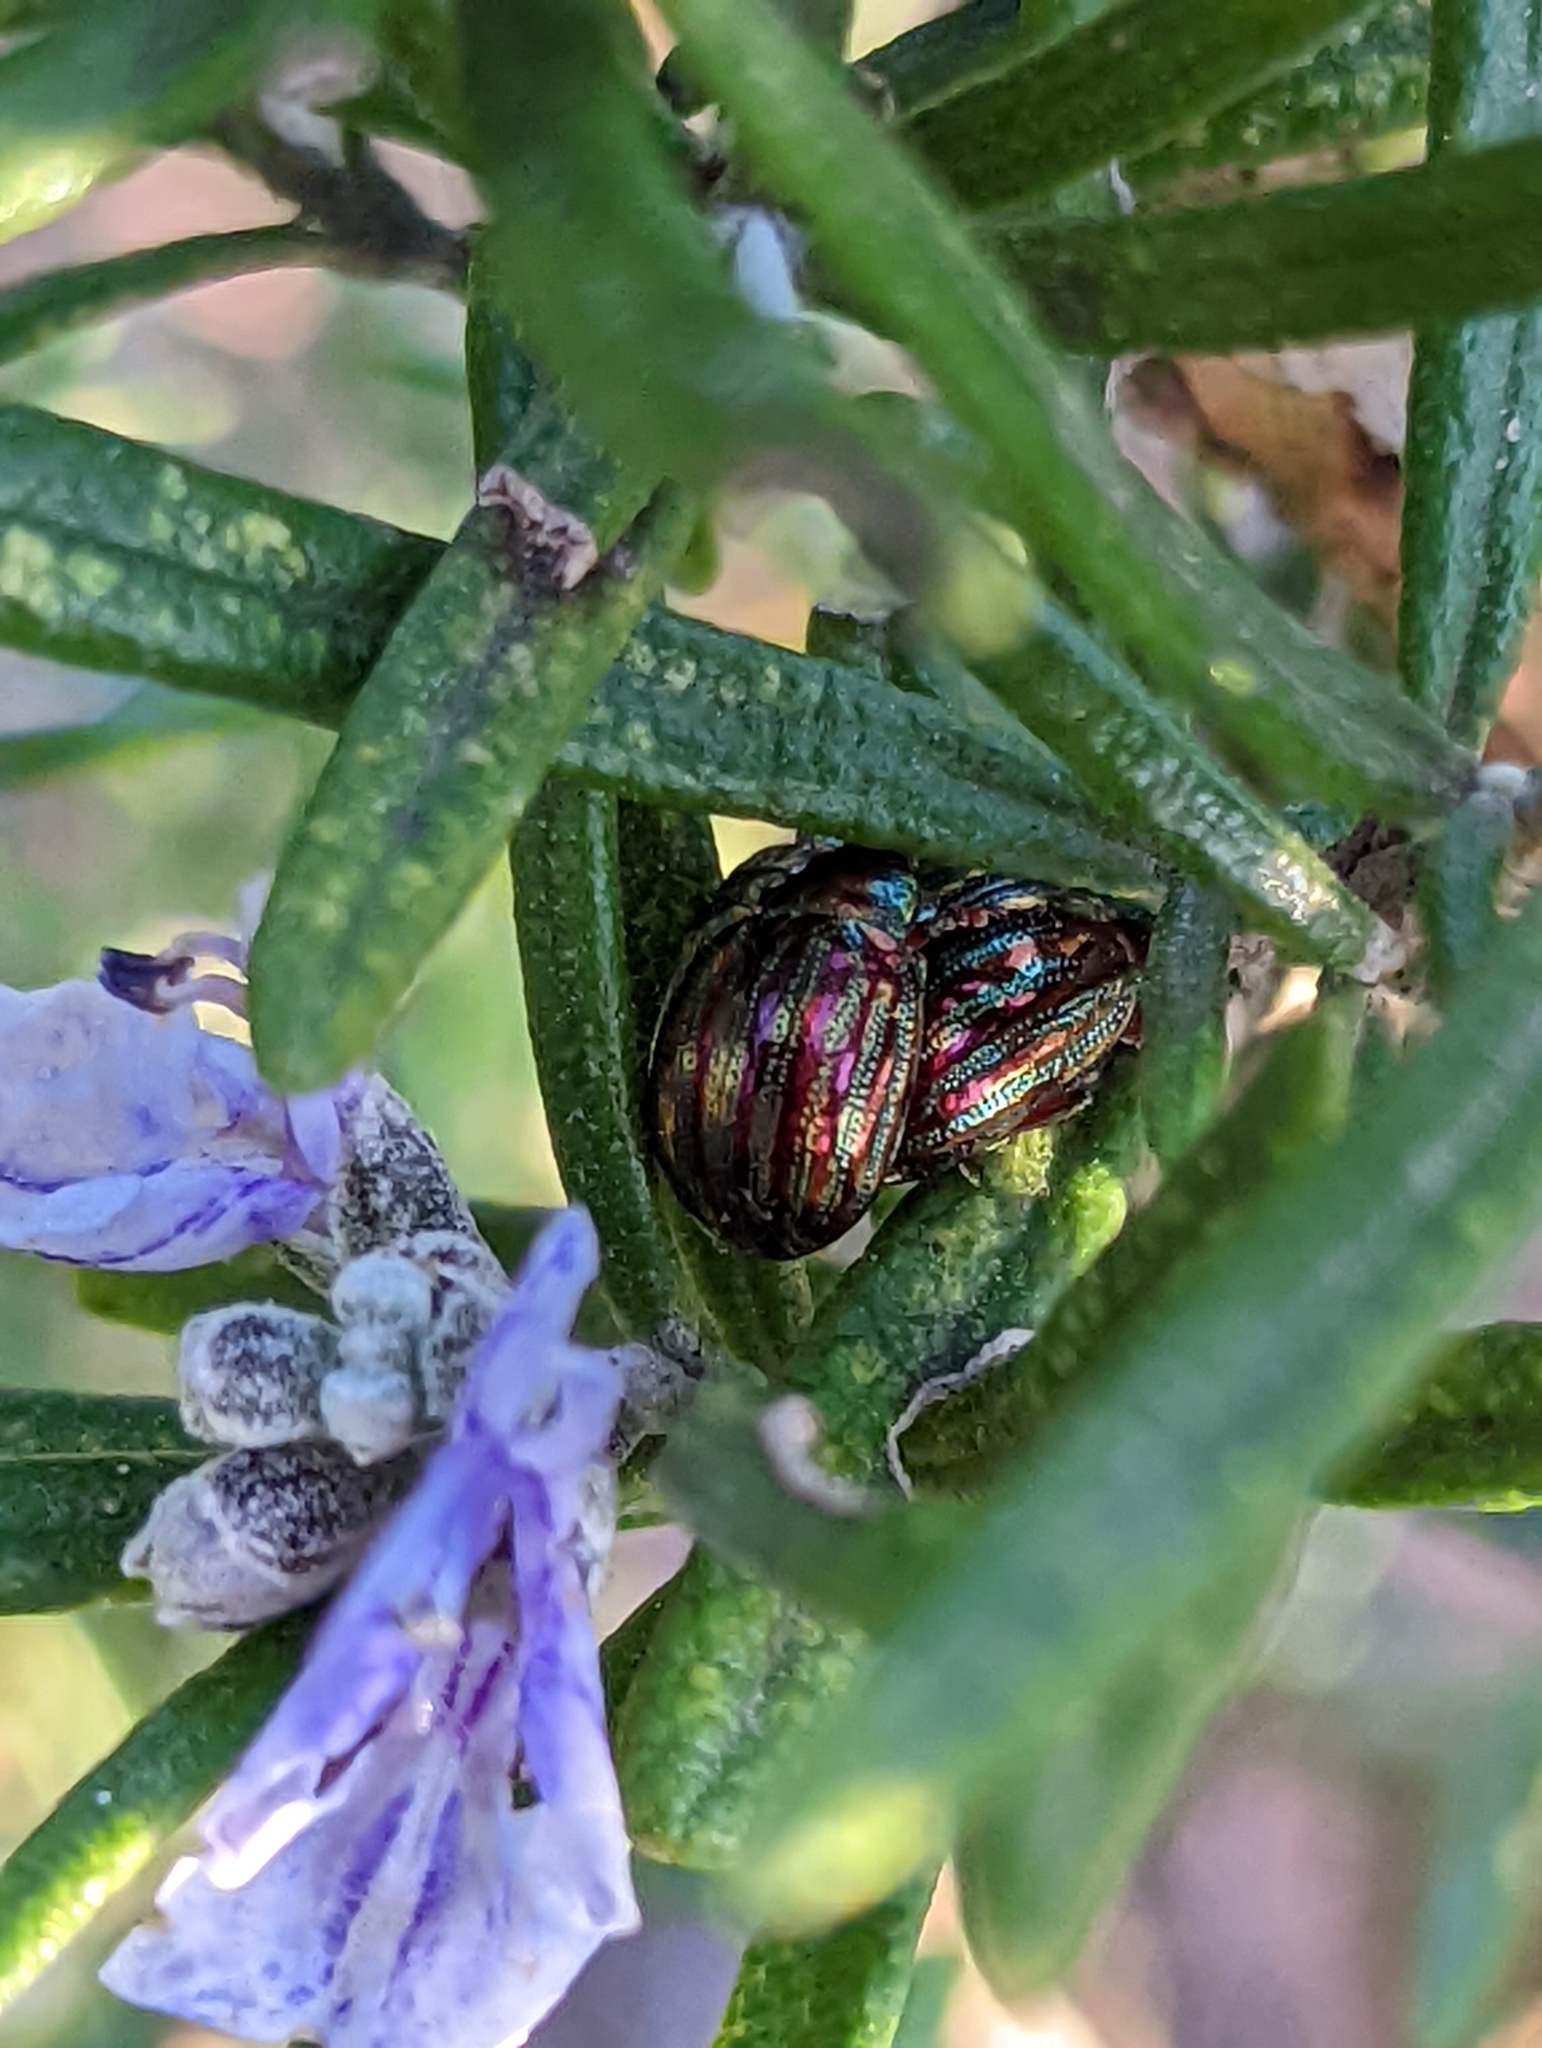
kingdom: Animalia
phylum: Arthropoda
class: Insecta
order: Coleoptera
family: Chrysomelidae
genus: Chrysolina
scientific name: Chrysolina americana
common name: Rosemary beetle
